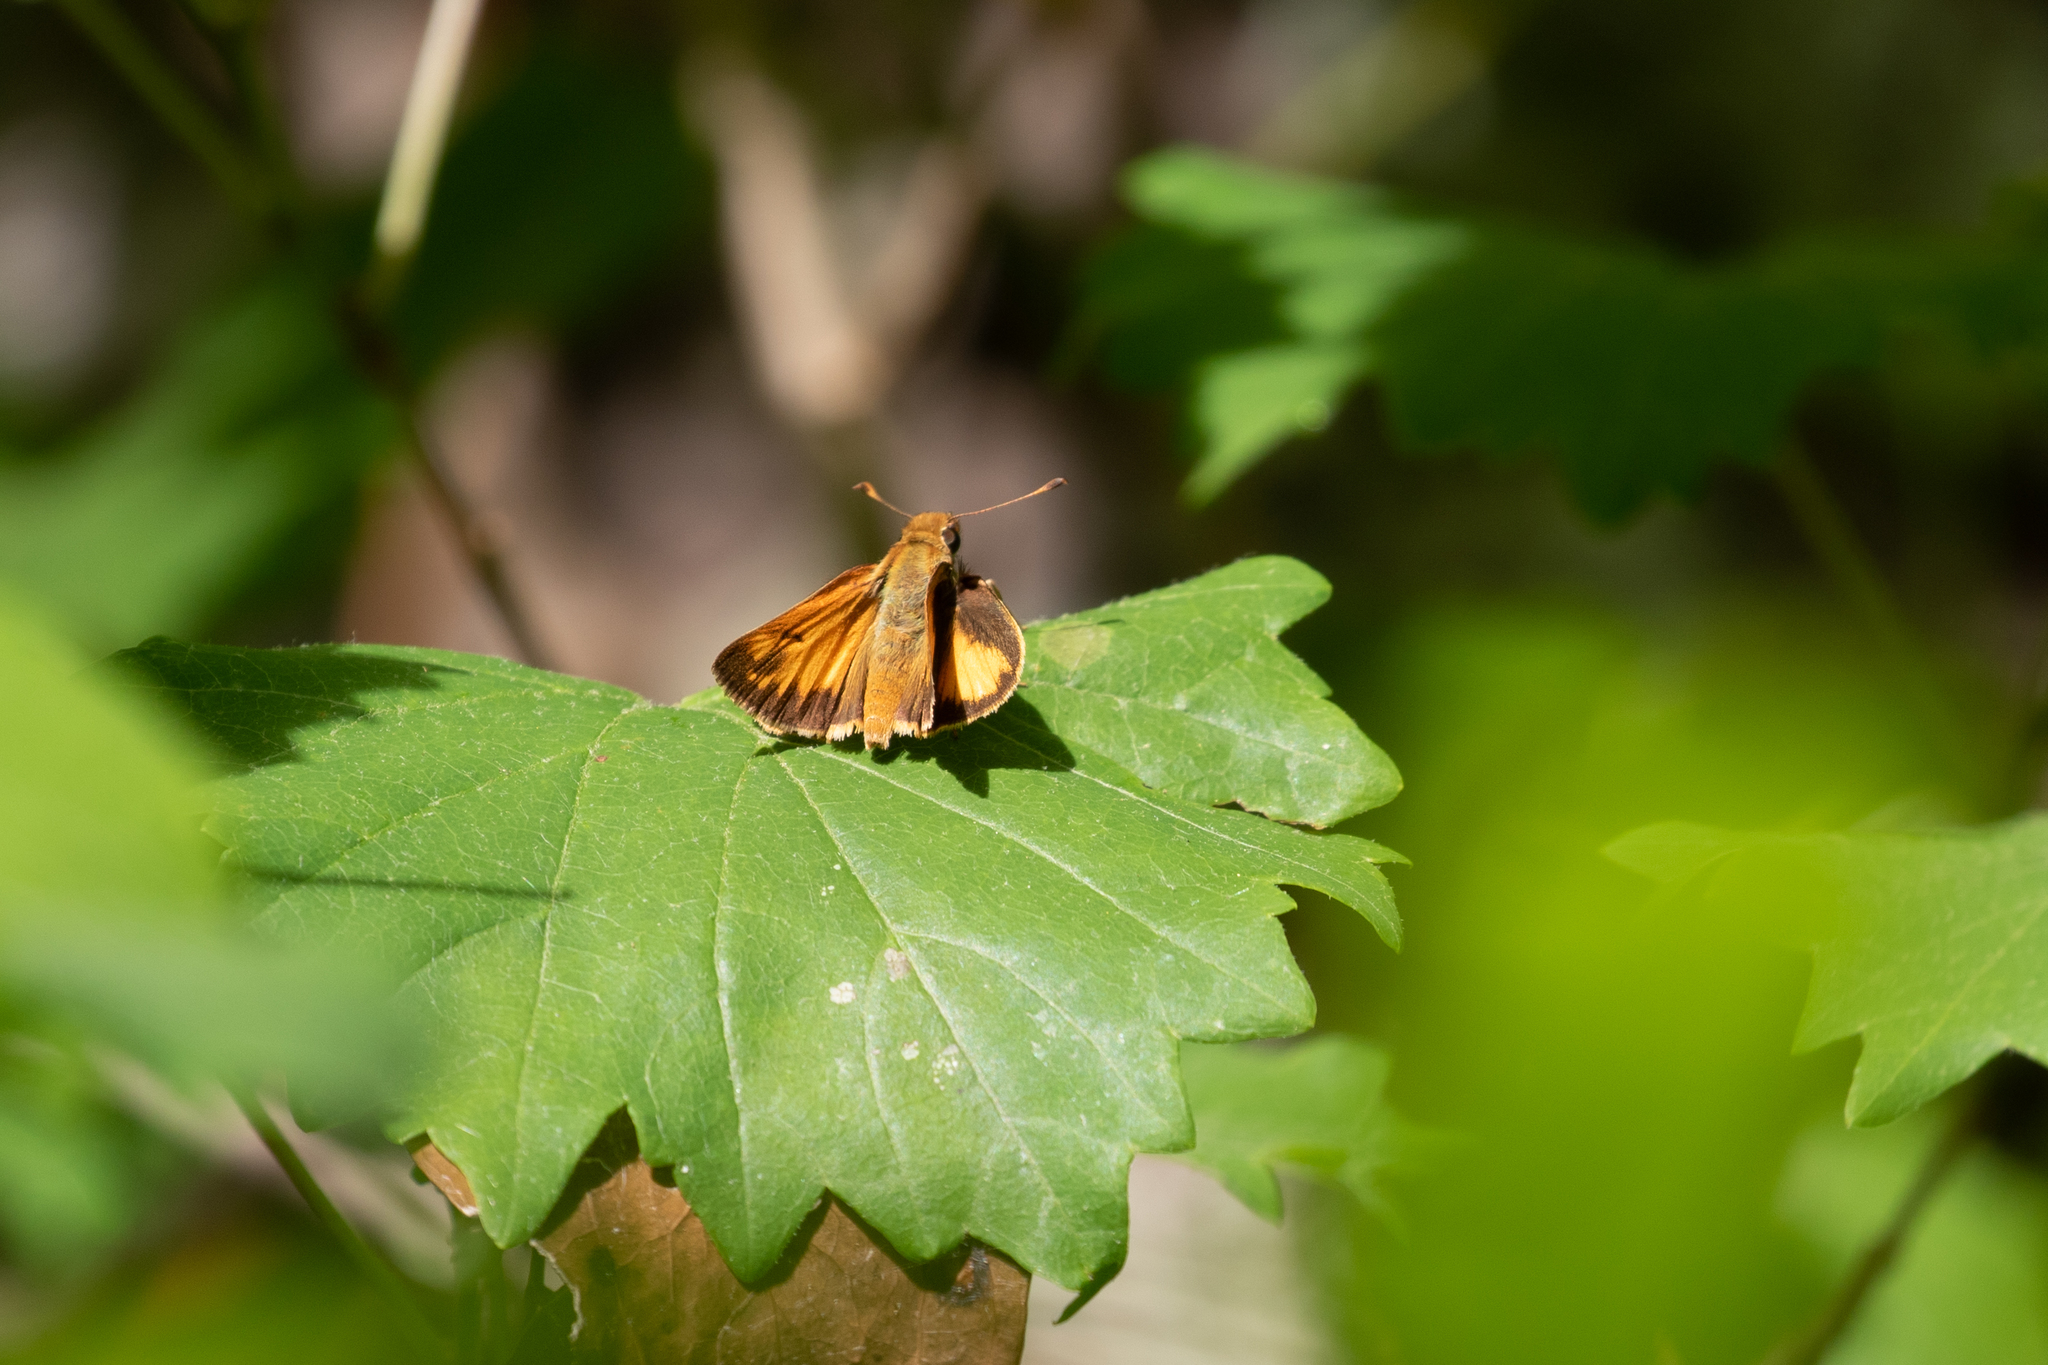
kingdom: Animalia
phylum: Arthropoda
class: Insecta
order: Lepidoptera
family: Hesperiidae
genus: Lon
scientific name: Lon zabulon
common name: Zabulon skipper
